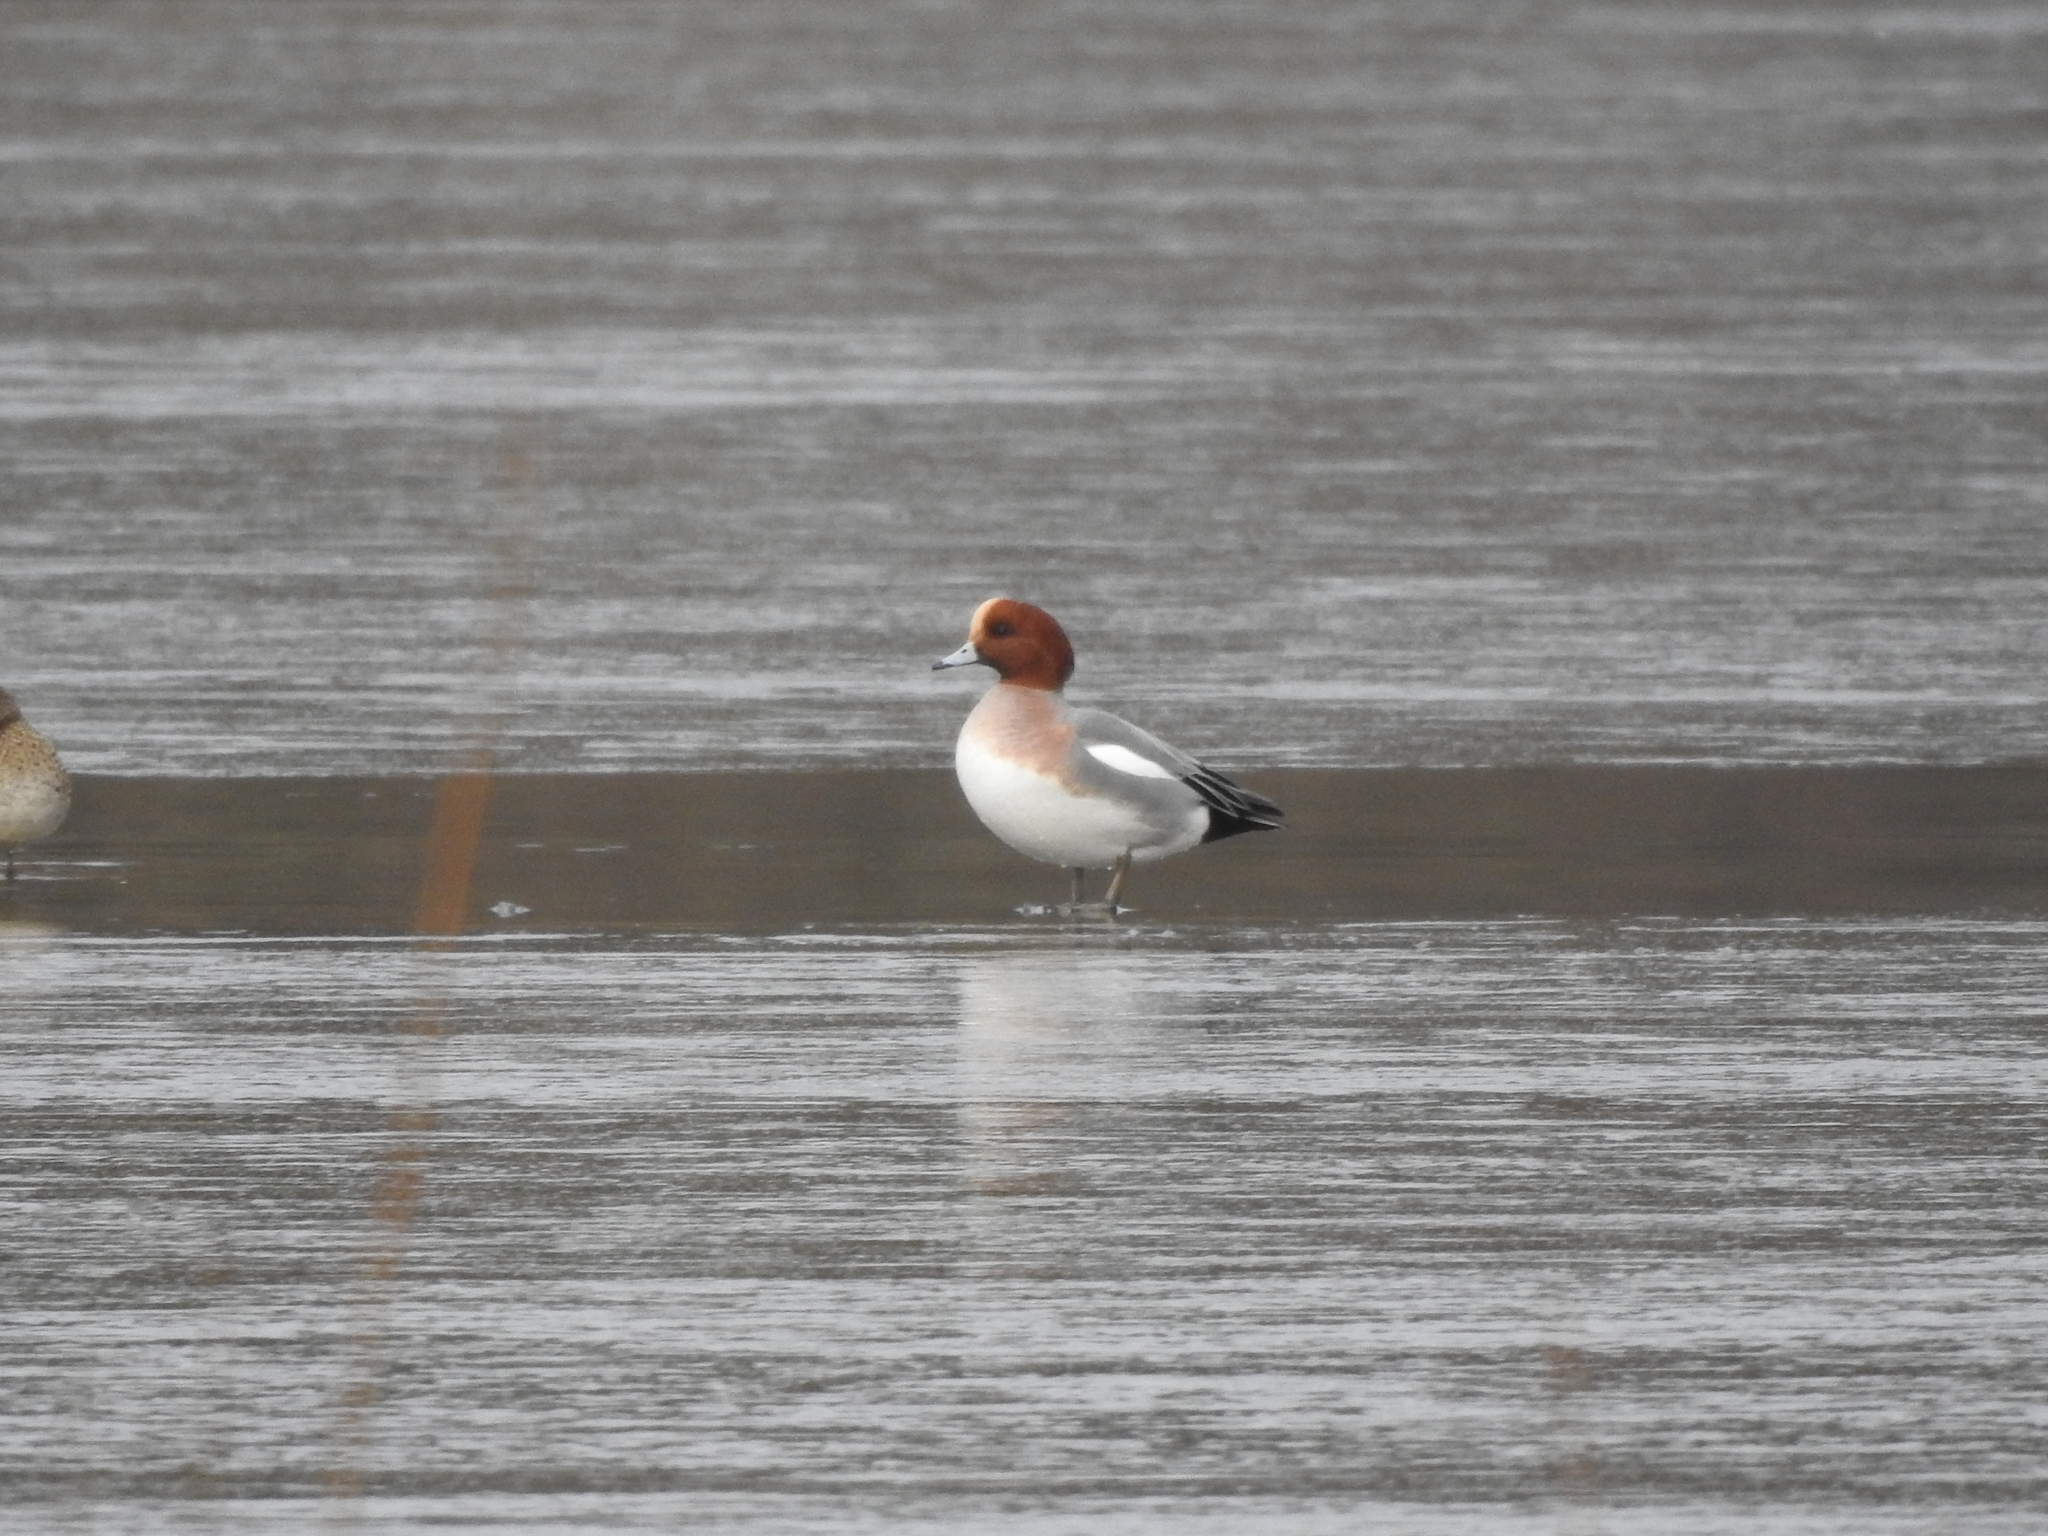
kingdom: Animalia
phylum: Chordata
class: Aves
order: Anseriformes
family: Anatidae
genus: Mareca
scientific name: Mareca penelope
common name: Eurasian wigeon
